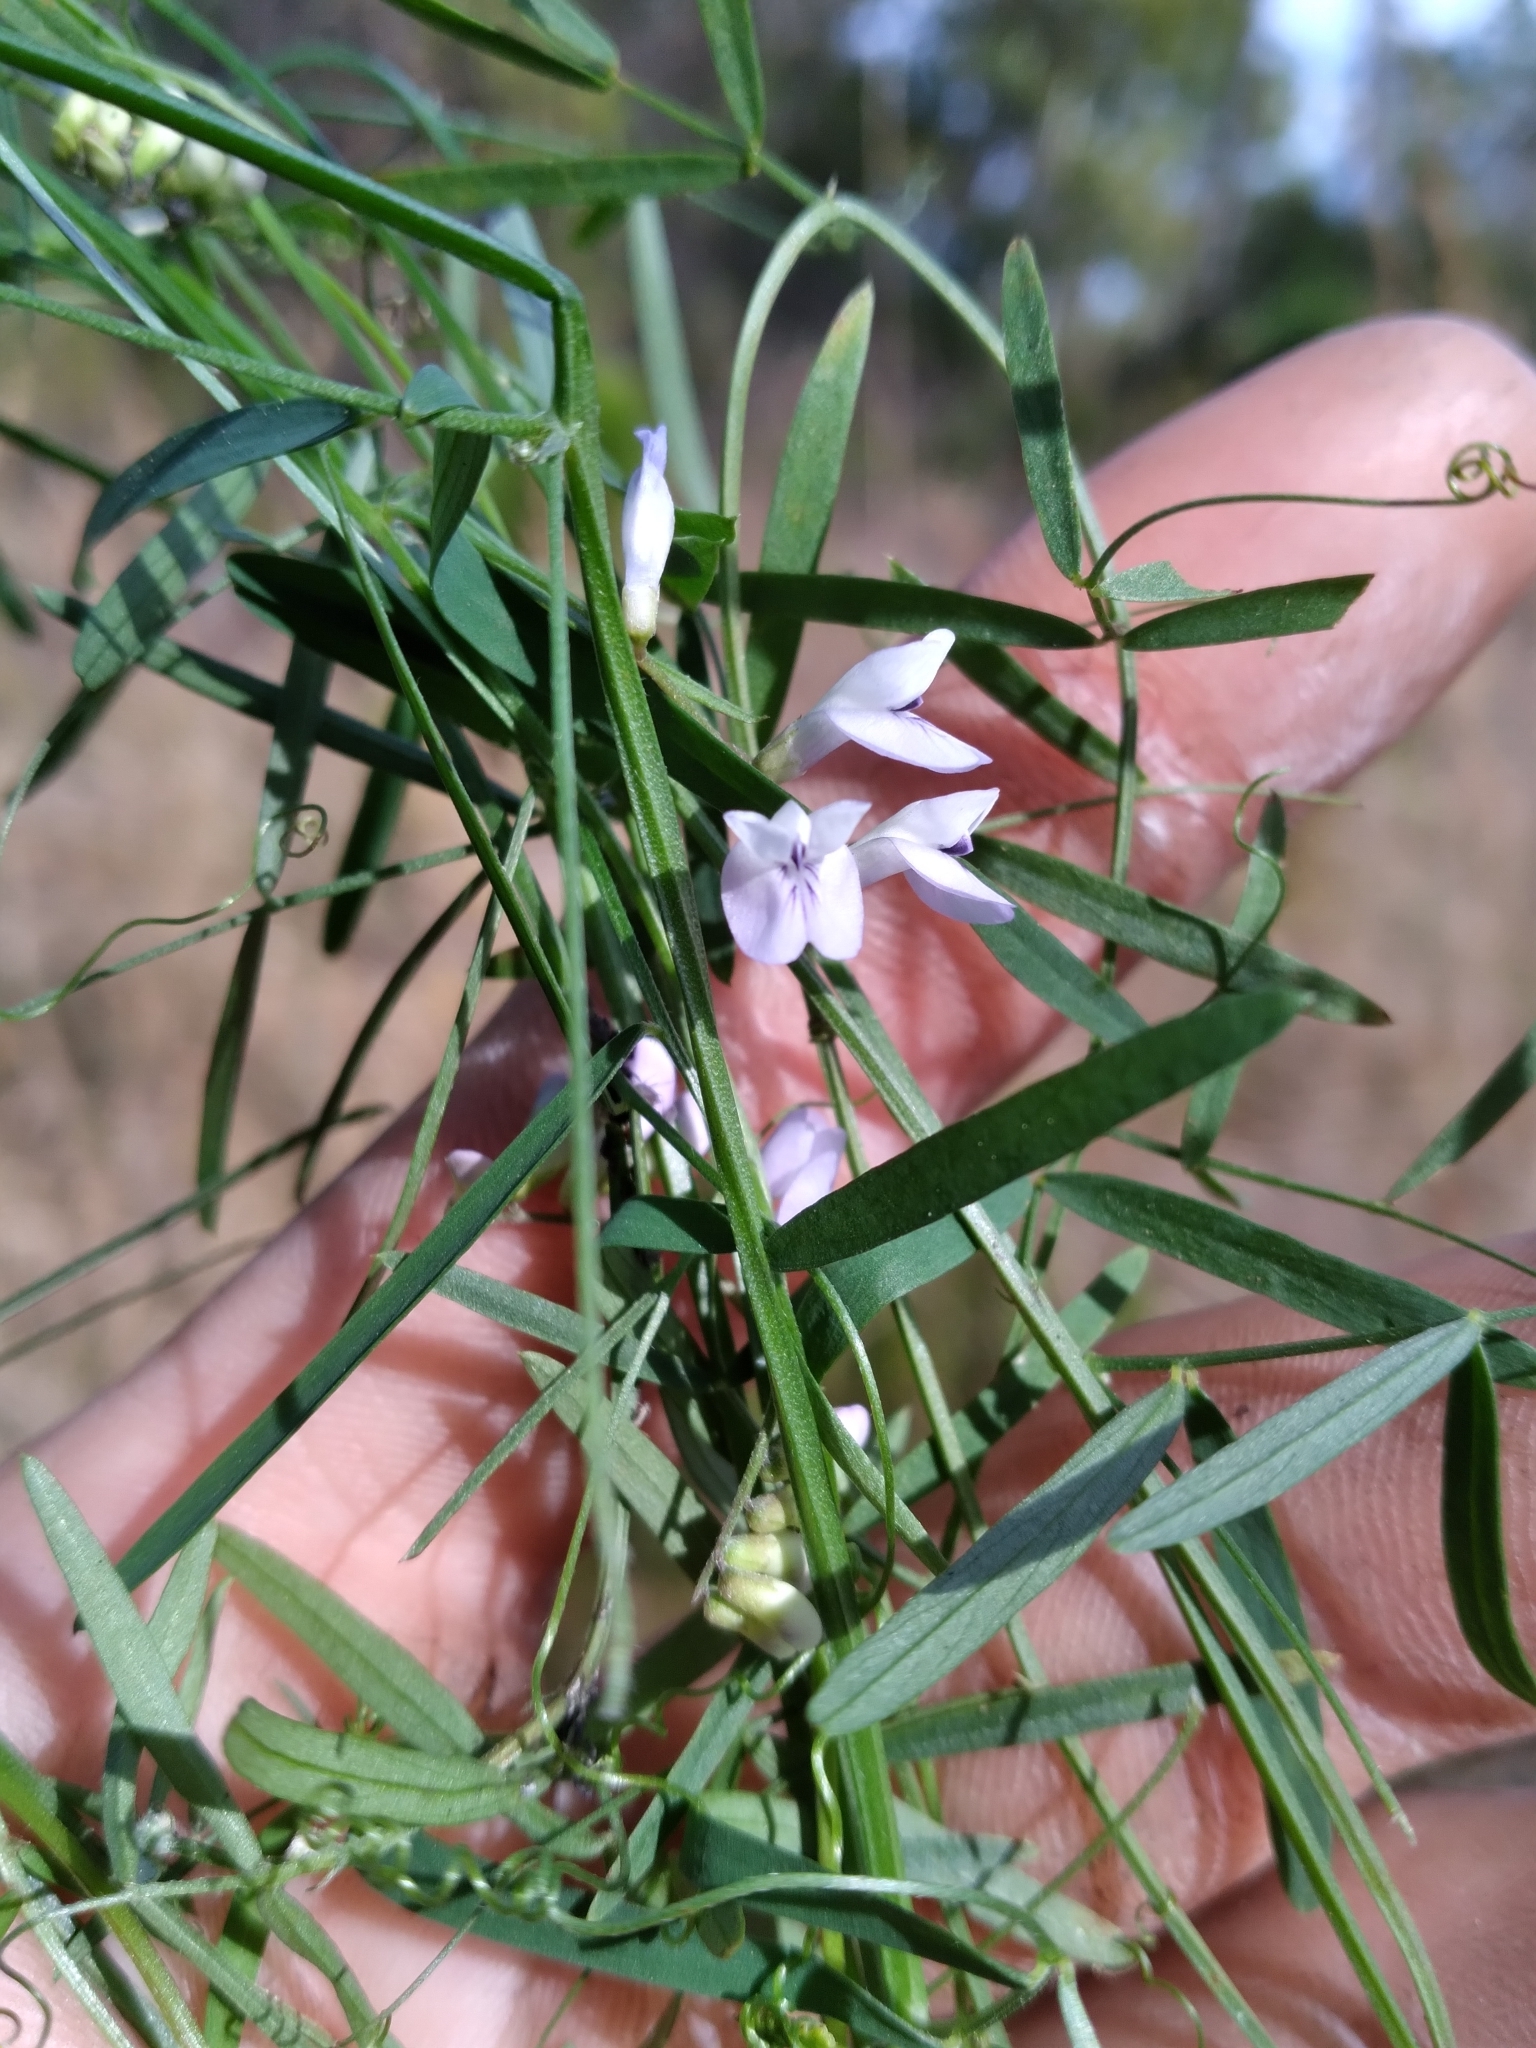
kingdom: Plantae
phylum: Tracheophyta
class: Magnoliopsida
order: Fabales
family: Fabaceae
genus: Vicia
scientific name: Vicia acutifolia
